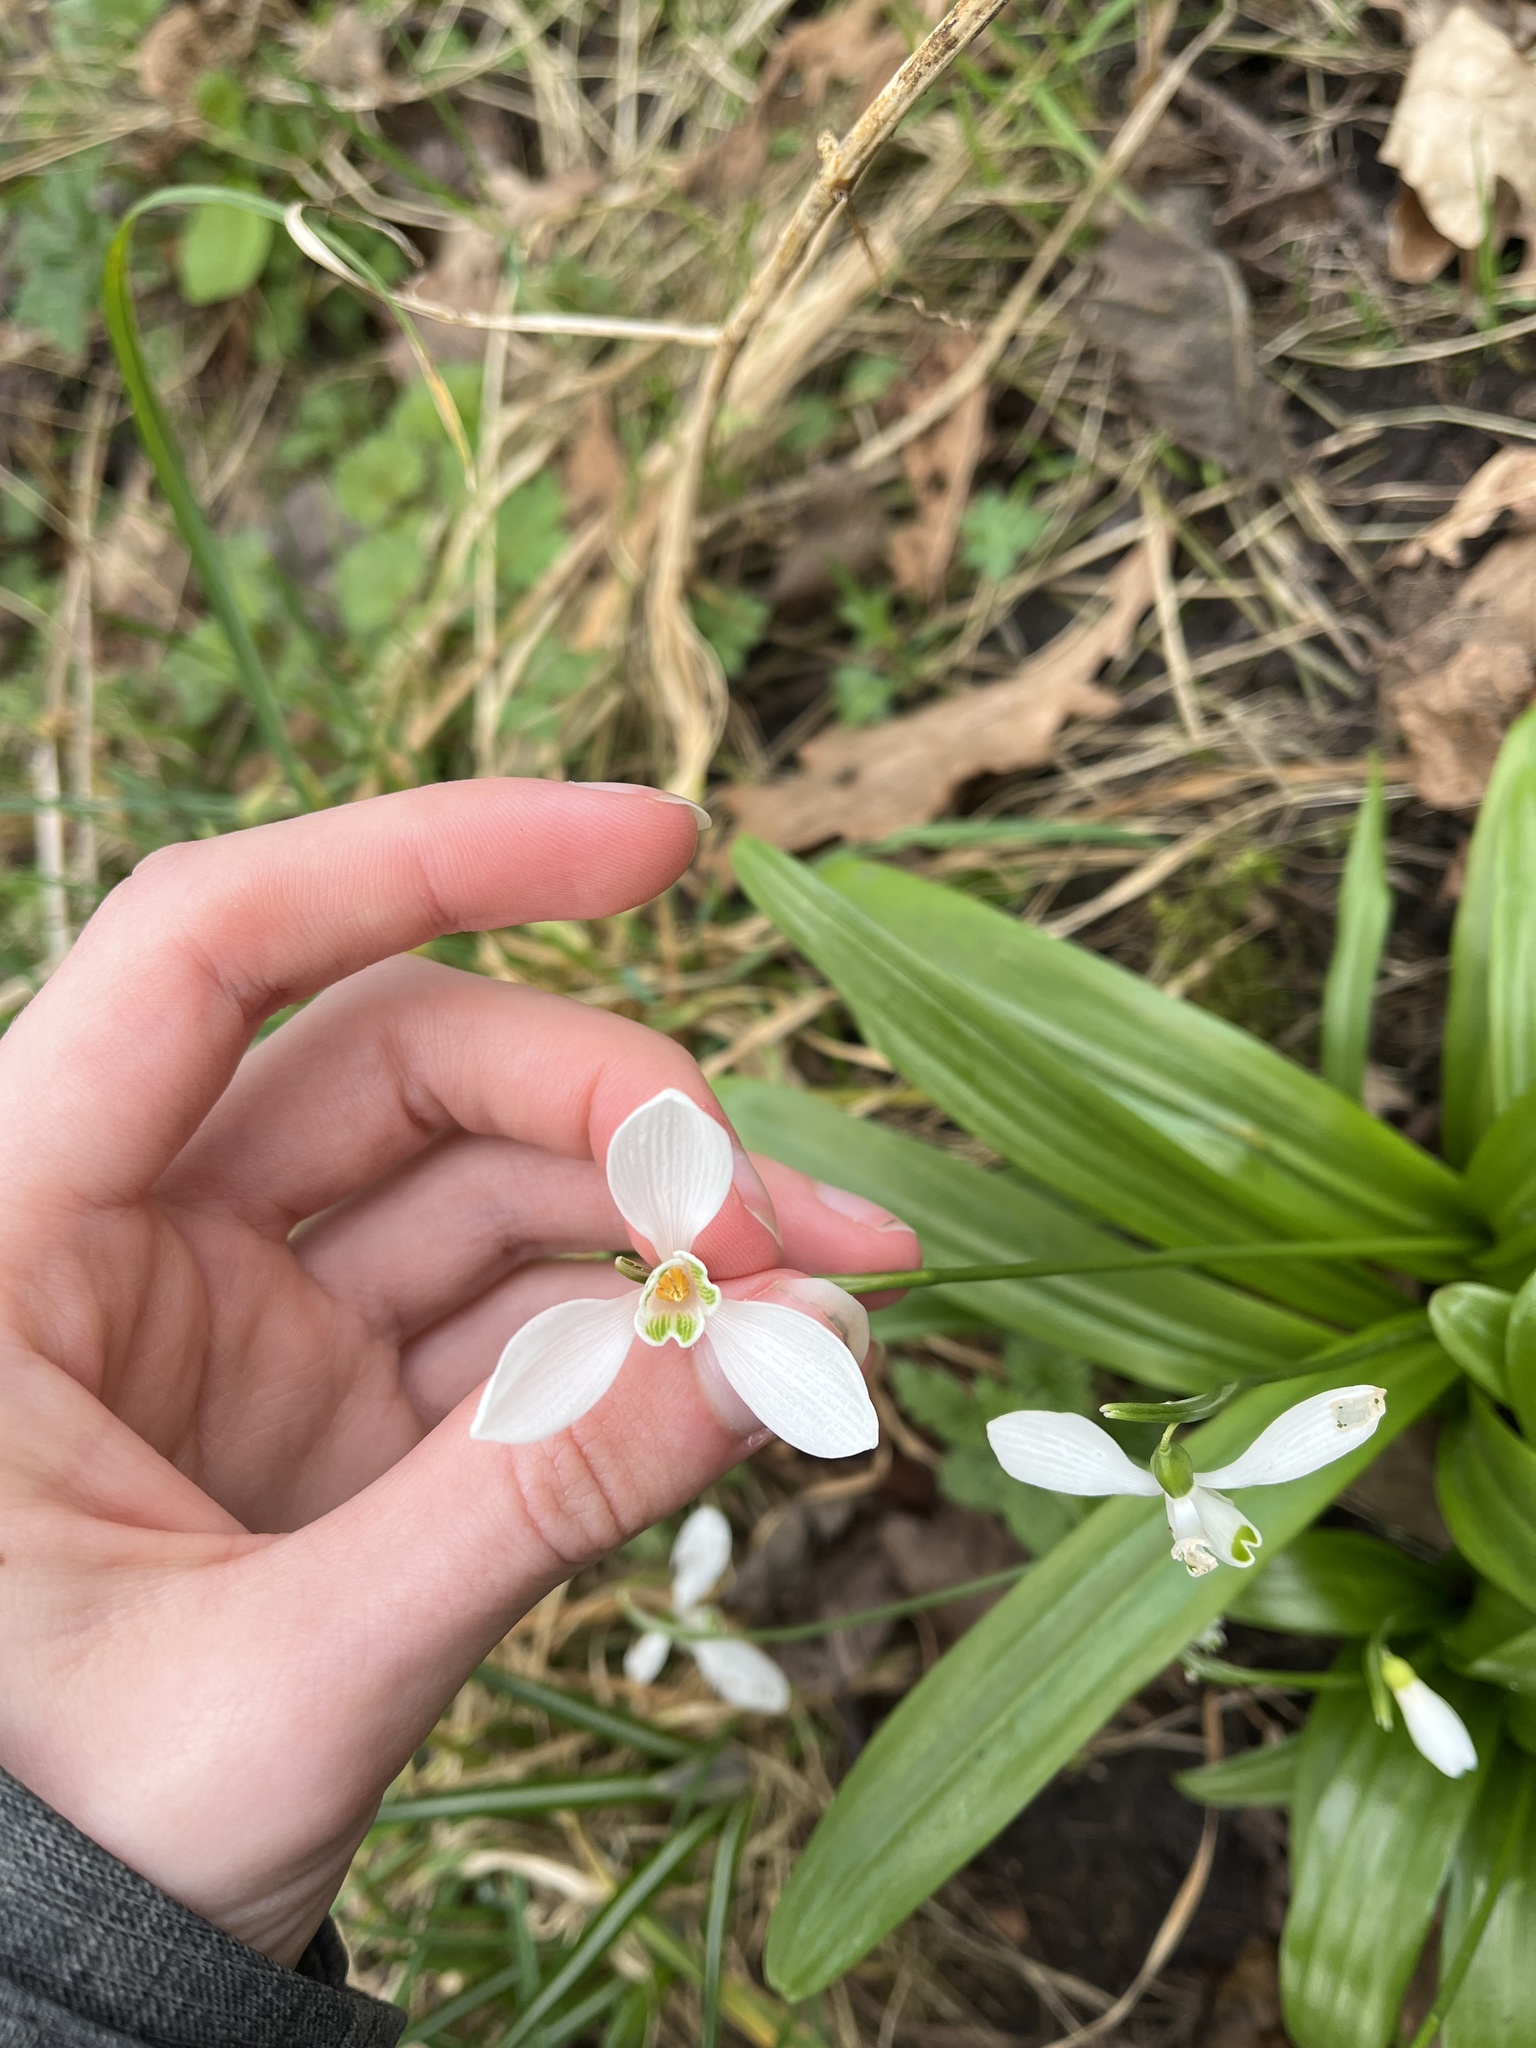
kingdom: Plantae
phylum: Tracheophyta
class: Liliopsida
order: Asparagales
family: Amaryllidaceae
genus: Galanthus
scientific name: Galanthus woronowii
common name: Green snowdrop
